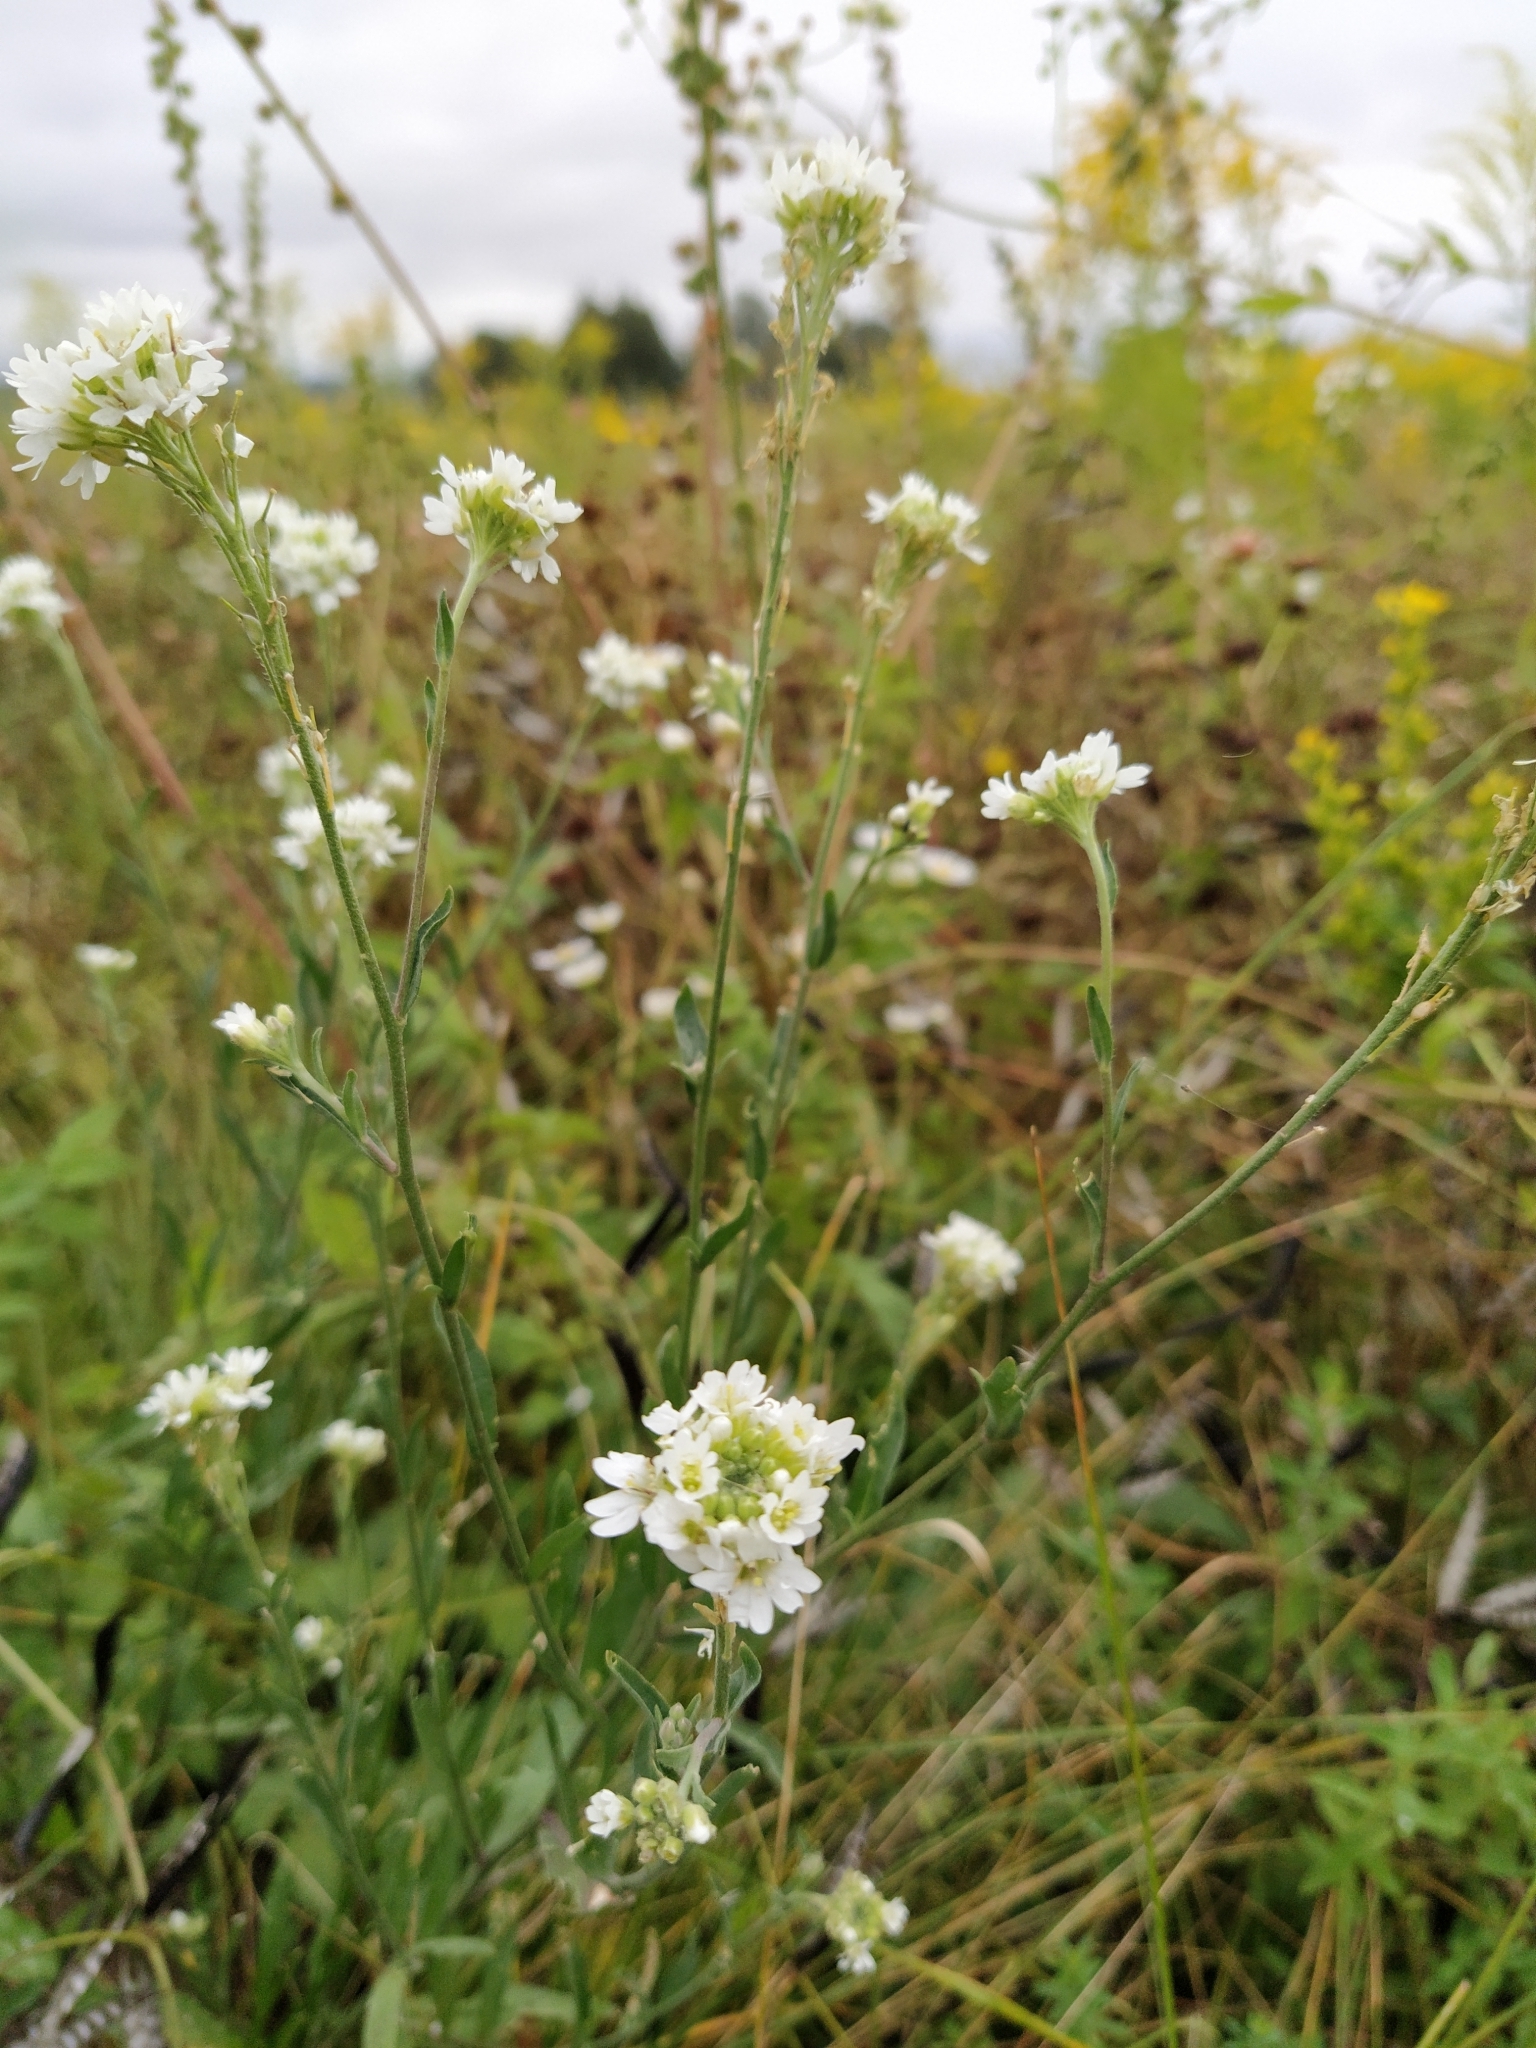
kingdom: Plantae
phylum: Tracheophyta
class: Magnoliopsida
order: Brassicales
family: Brassicaceae
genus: Berteroa
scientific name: Berteroa incana
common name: Hoary alison
